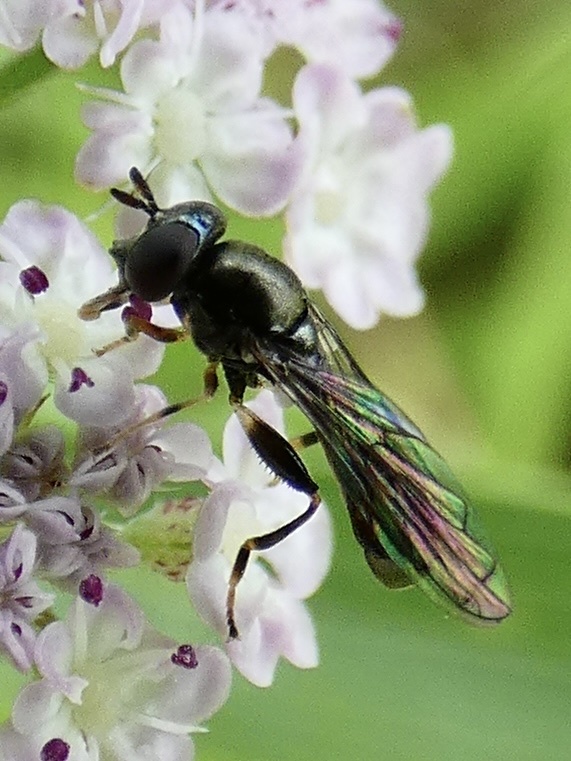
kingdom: Animalia
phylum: Arthropoda
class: Insecta
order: Diptera
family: Syrphidae
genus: Neoascia
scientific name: Neoascia
